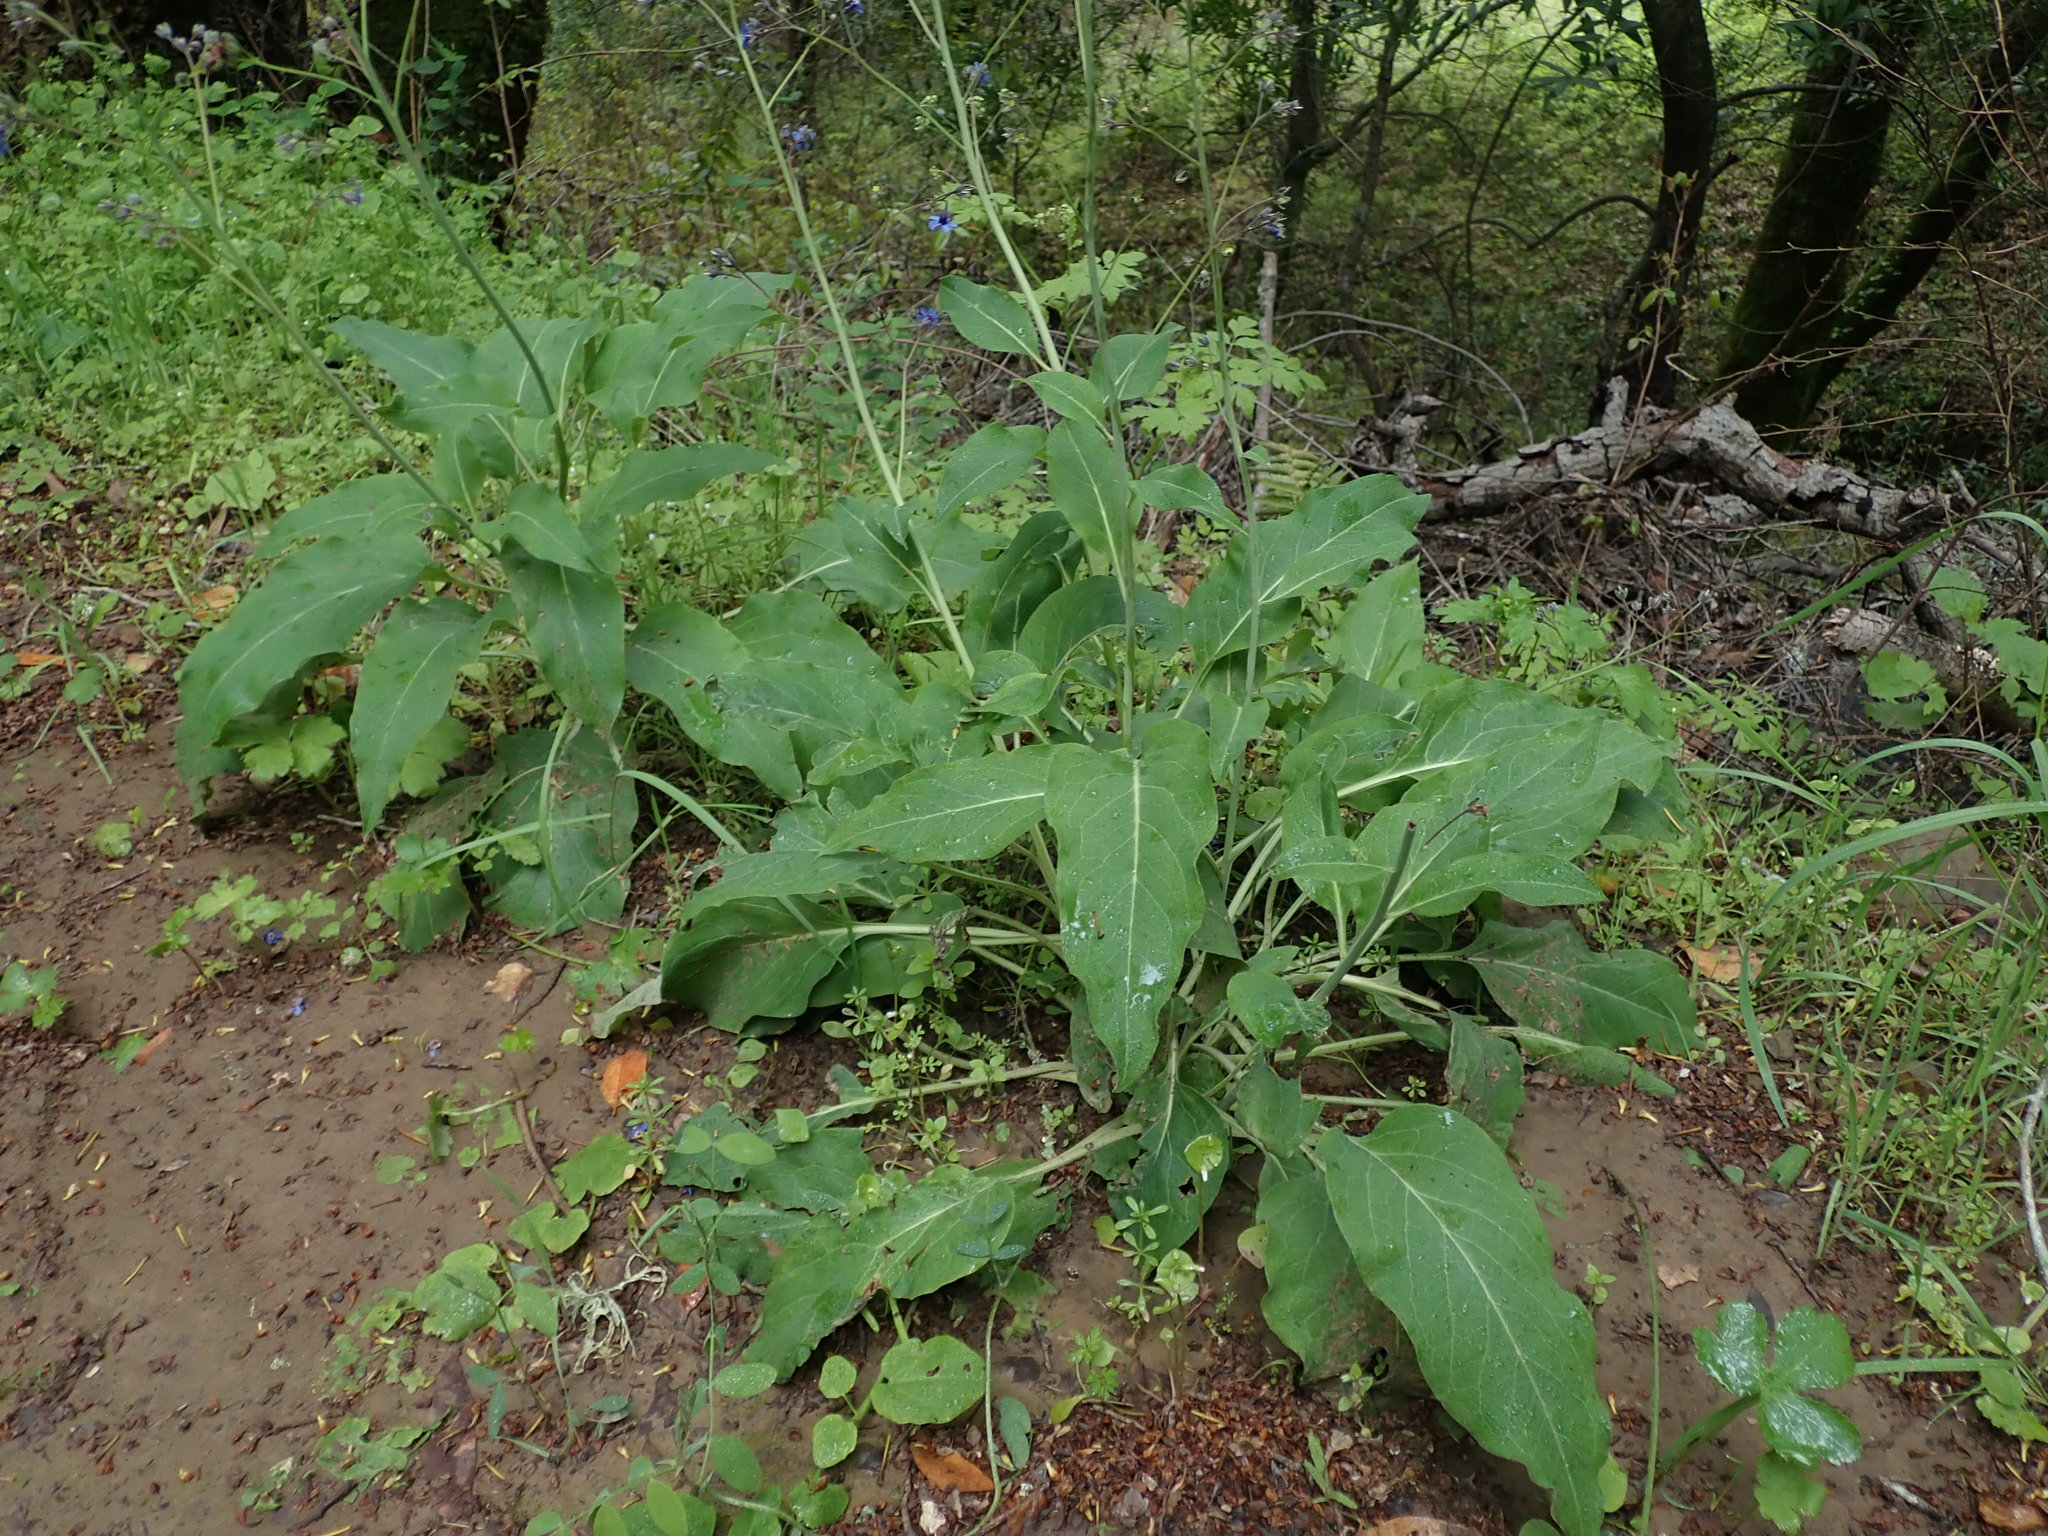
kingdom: Plantae
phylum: Tracheophyta
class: Magnoliopsida
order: Boraginales
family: Boraginaceae
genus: Adelinia
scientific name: Adelinia grande
